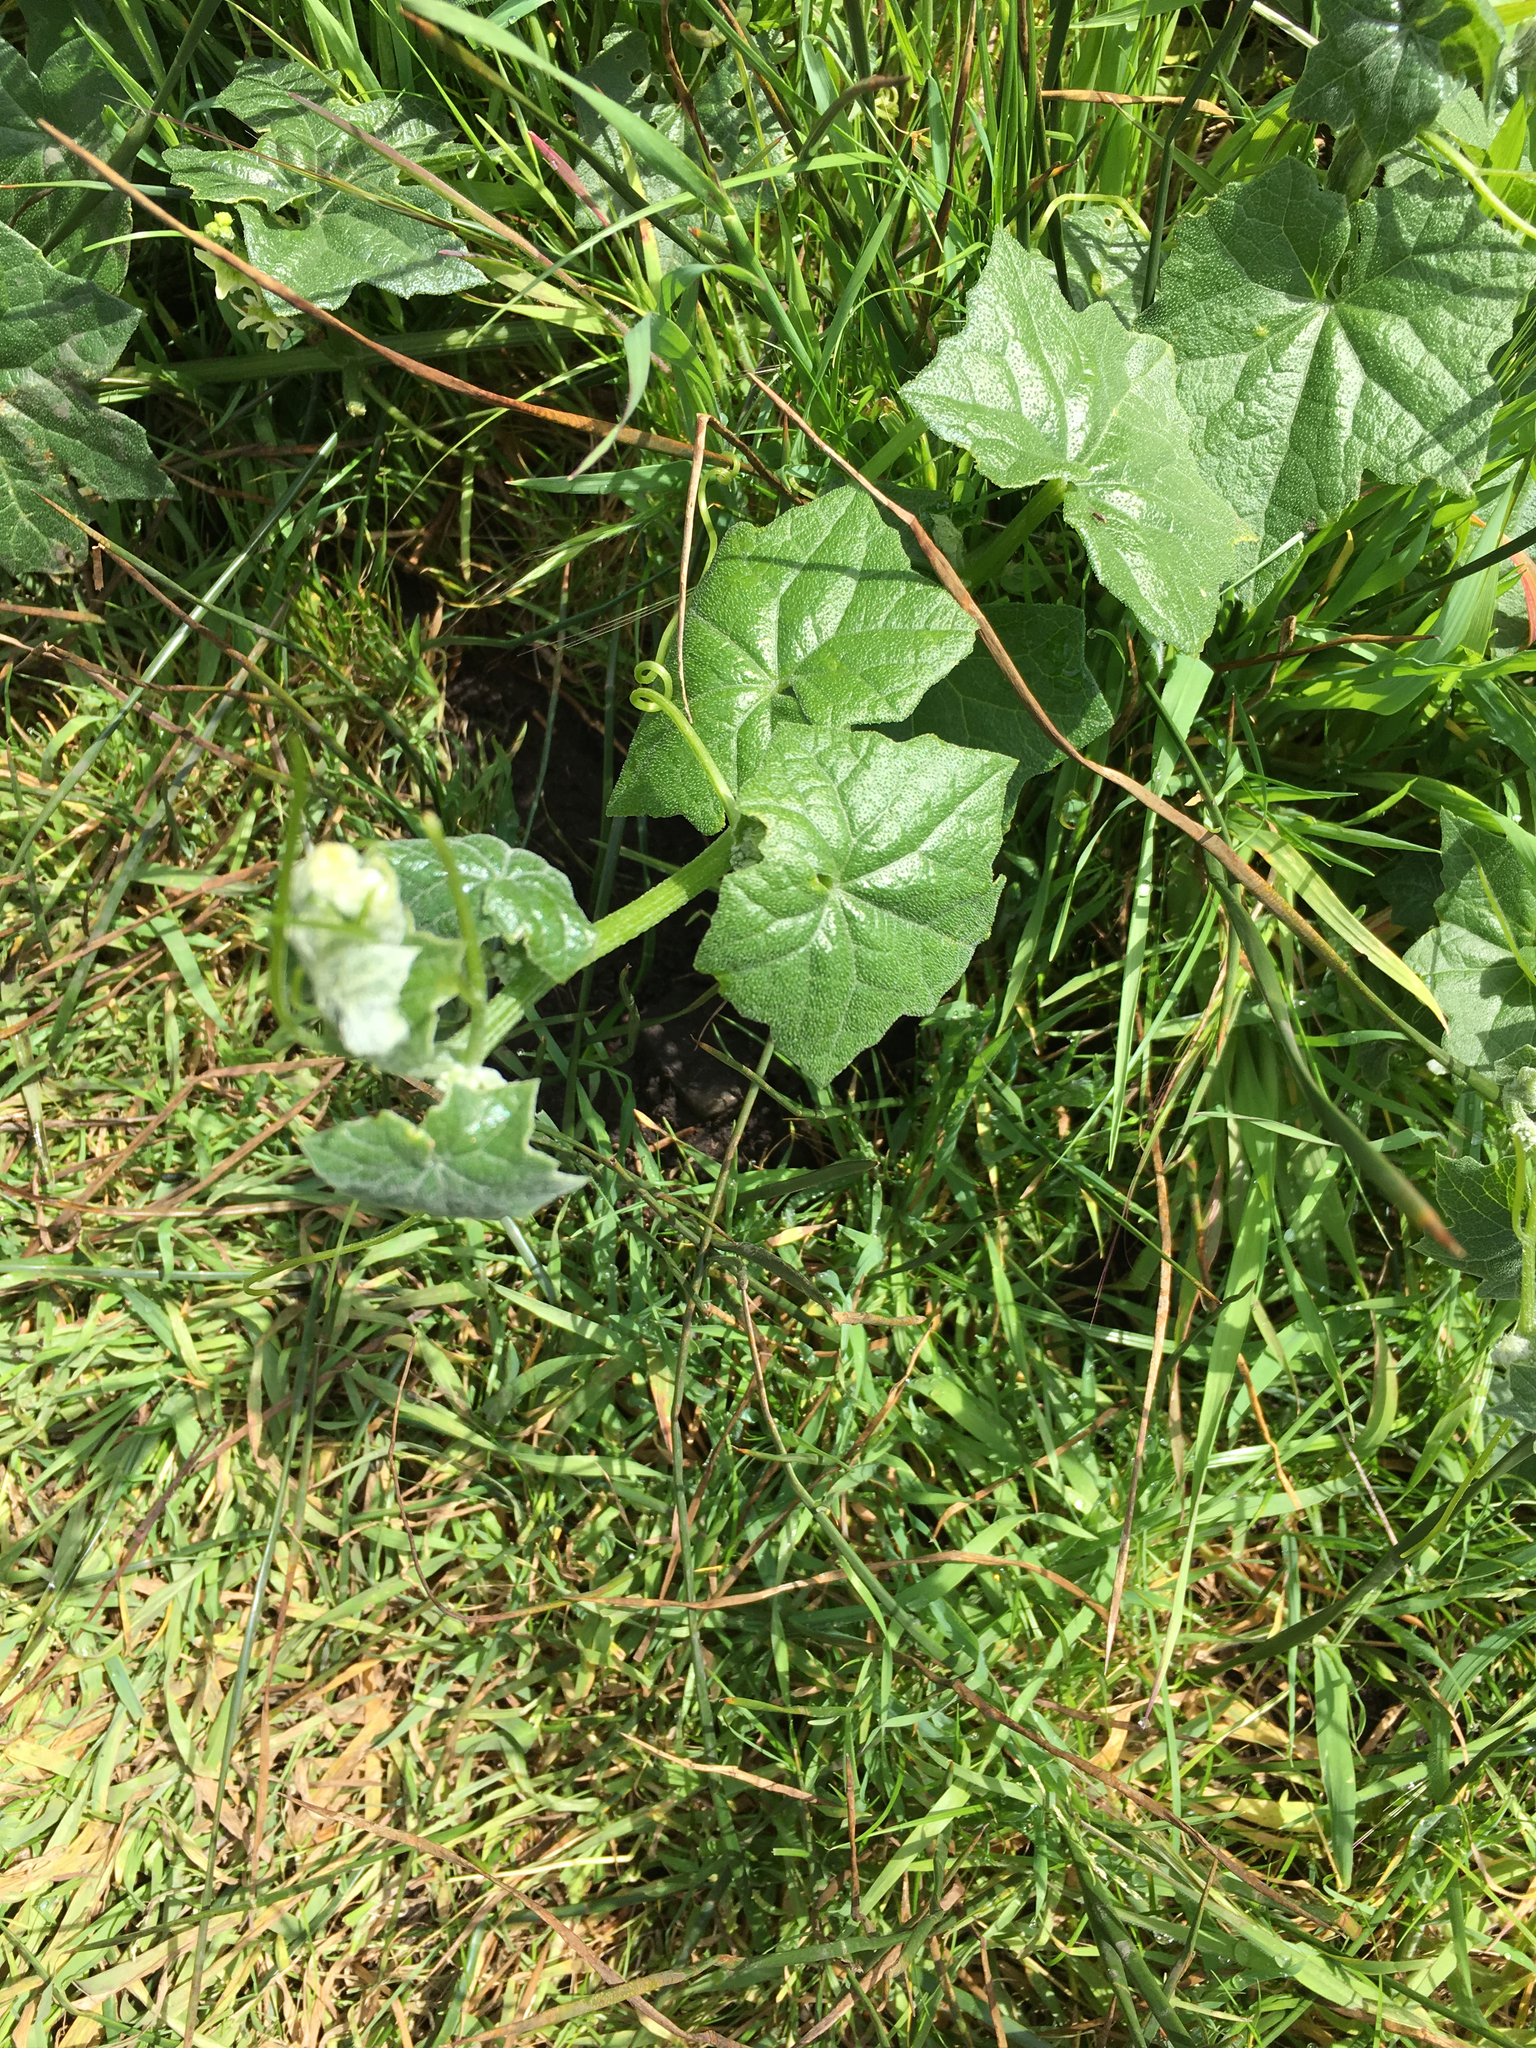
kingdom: Plantae
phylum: Tracheophyta
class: Magnoliopsida
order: Cucurbitales
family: Cucurbitaceae
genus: Marah
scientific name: Marah fabacea
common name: California manroot
